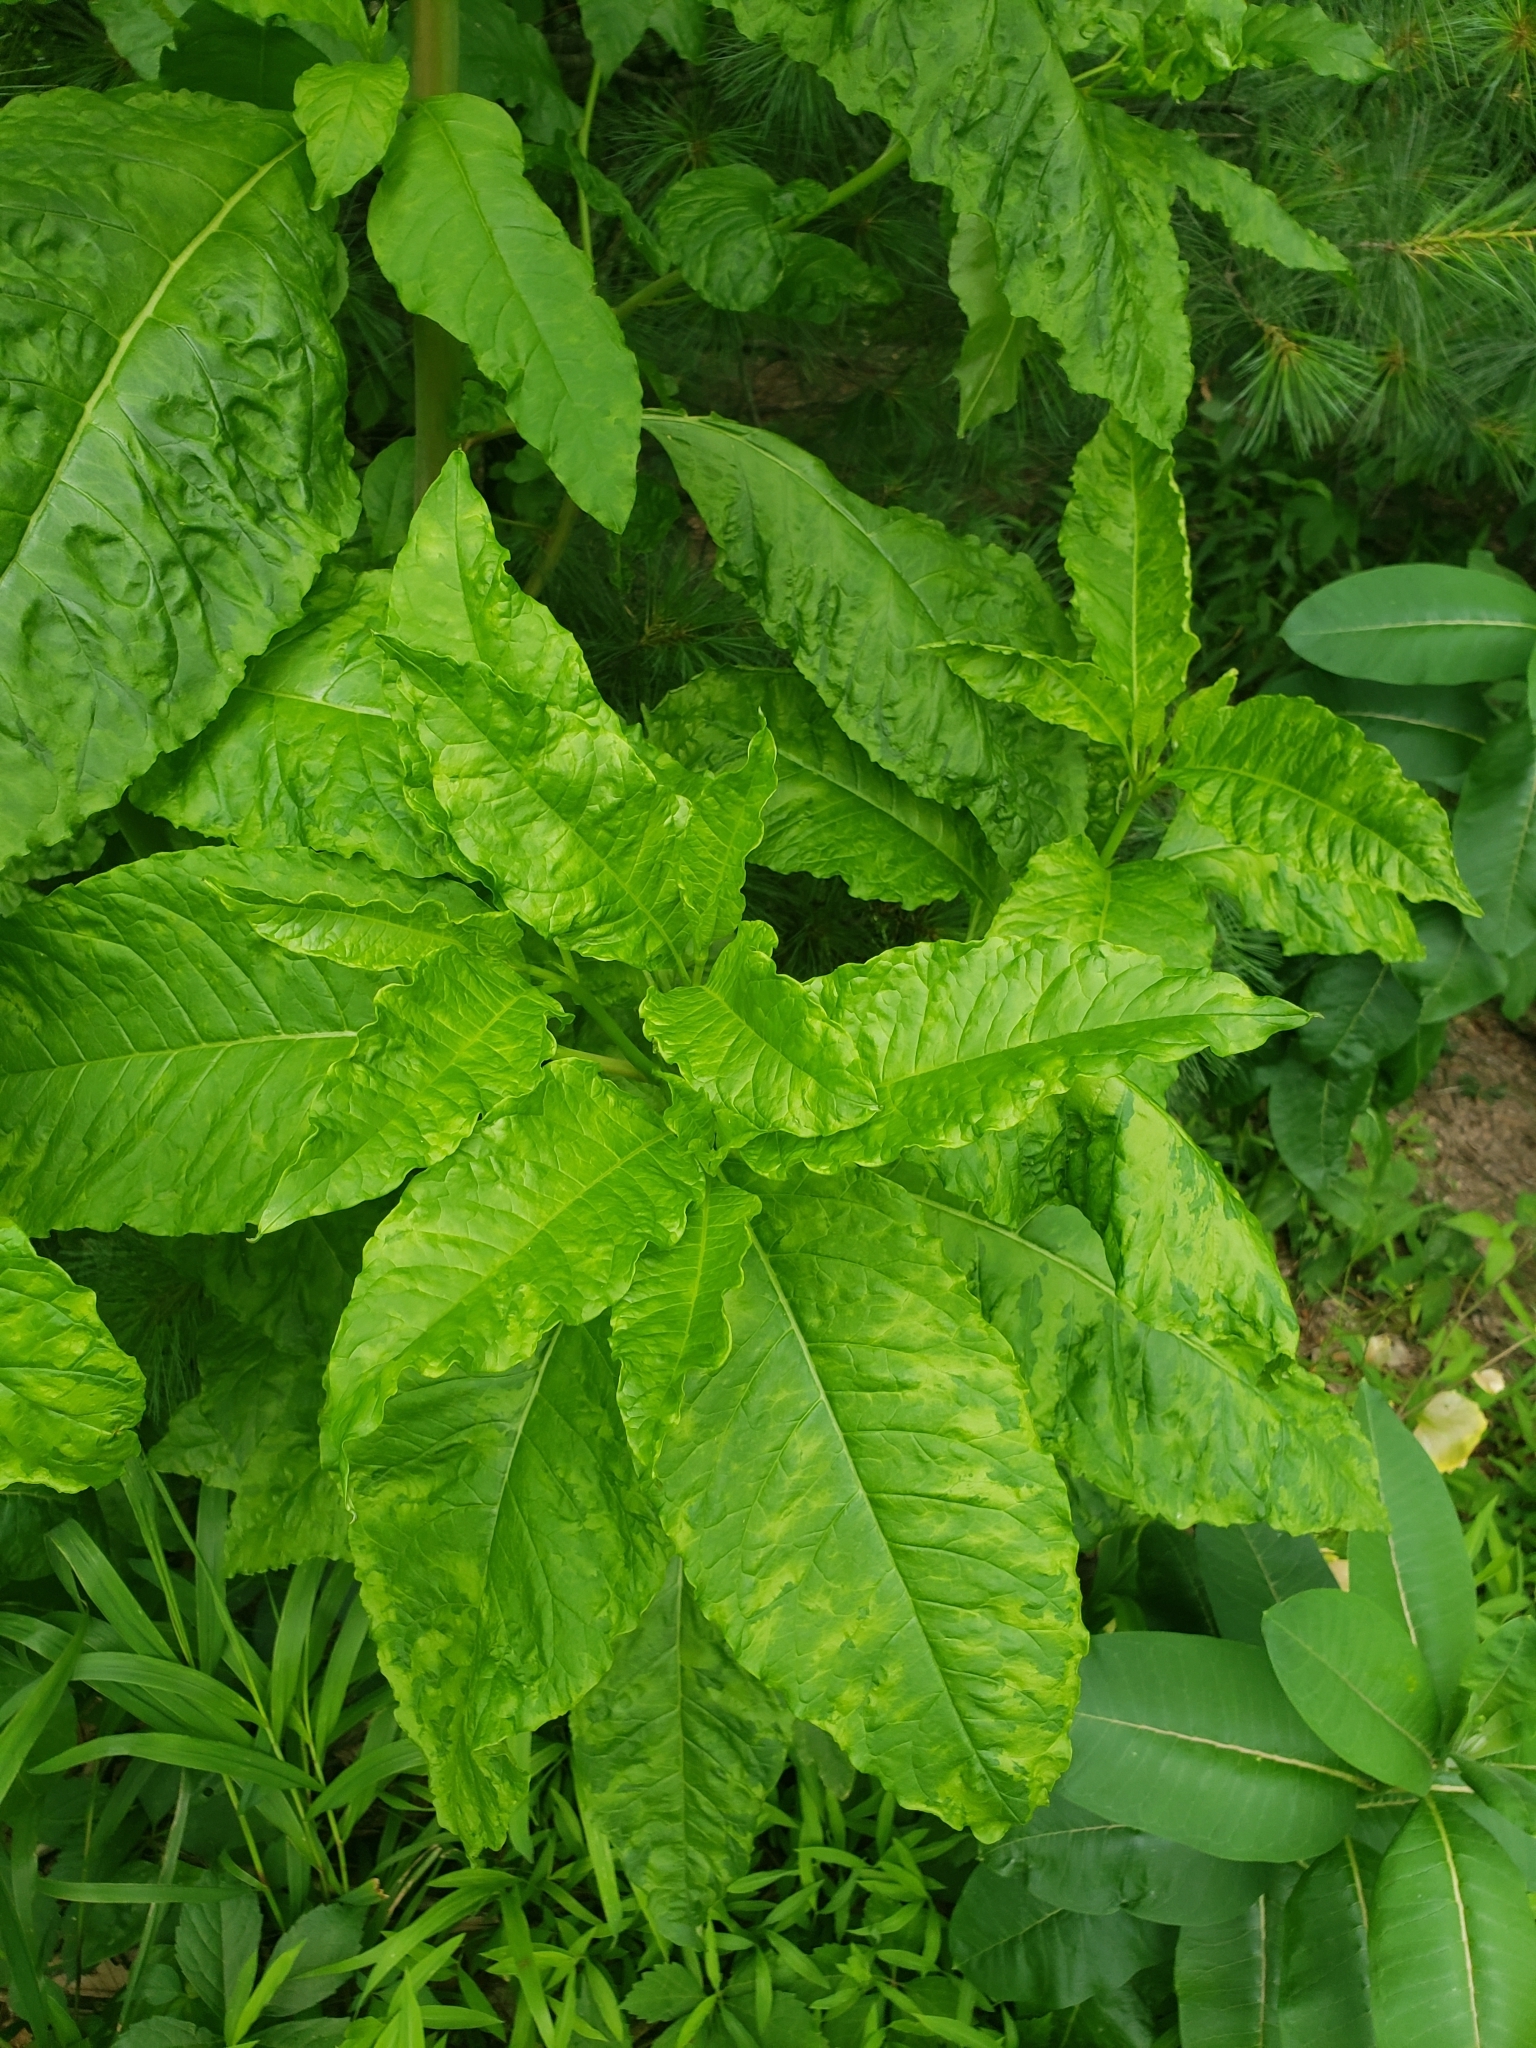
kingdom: Plantae
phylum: Tracheophyta
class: Magnoliopsida
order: Caryophyllales
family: Phytolaccaceae
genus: Phytolacca
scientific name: Phytolacca americana
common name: American pokeweed
